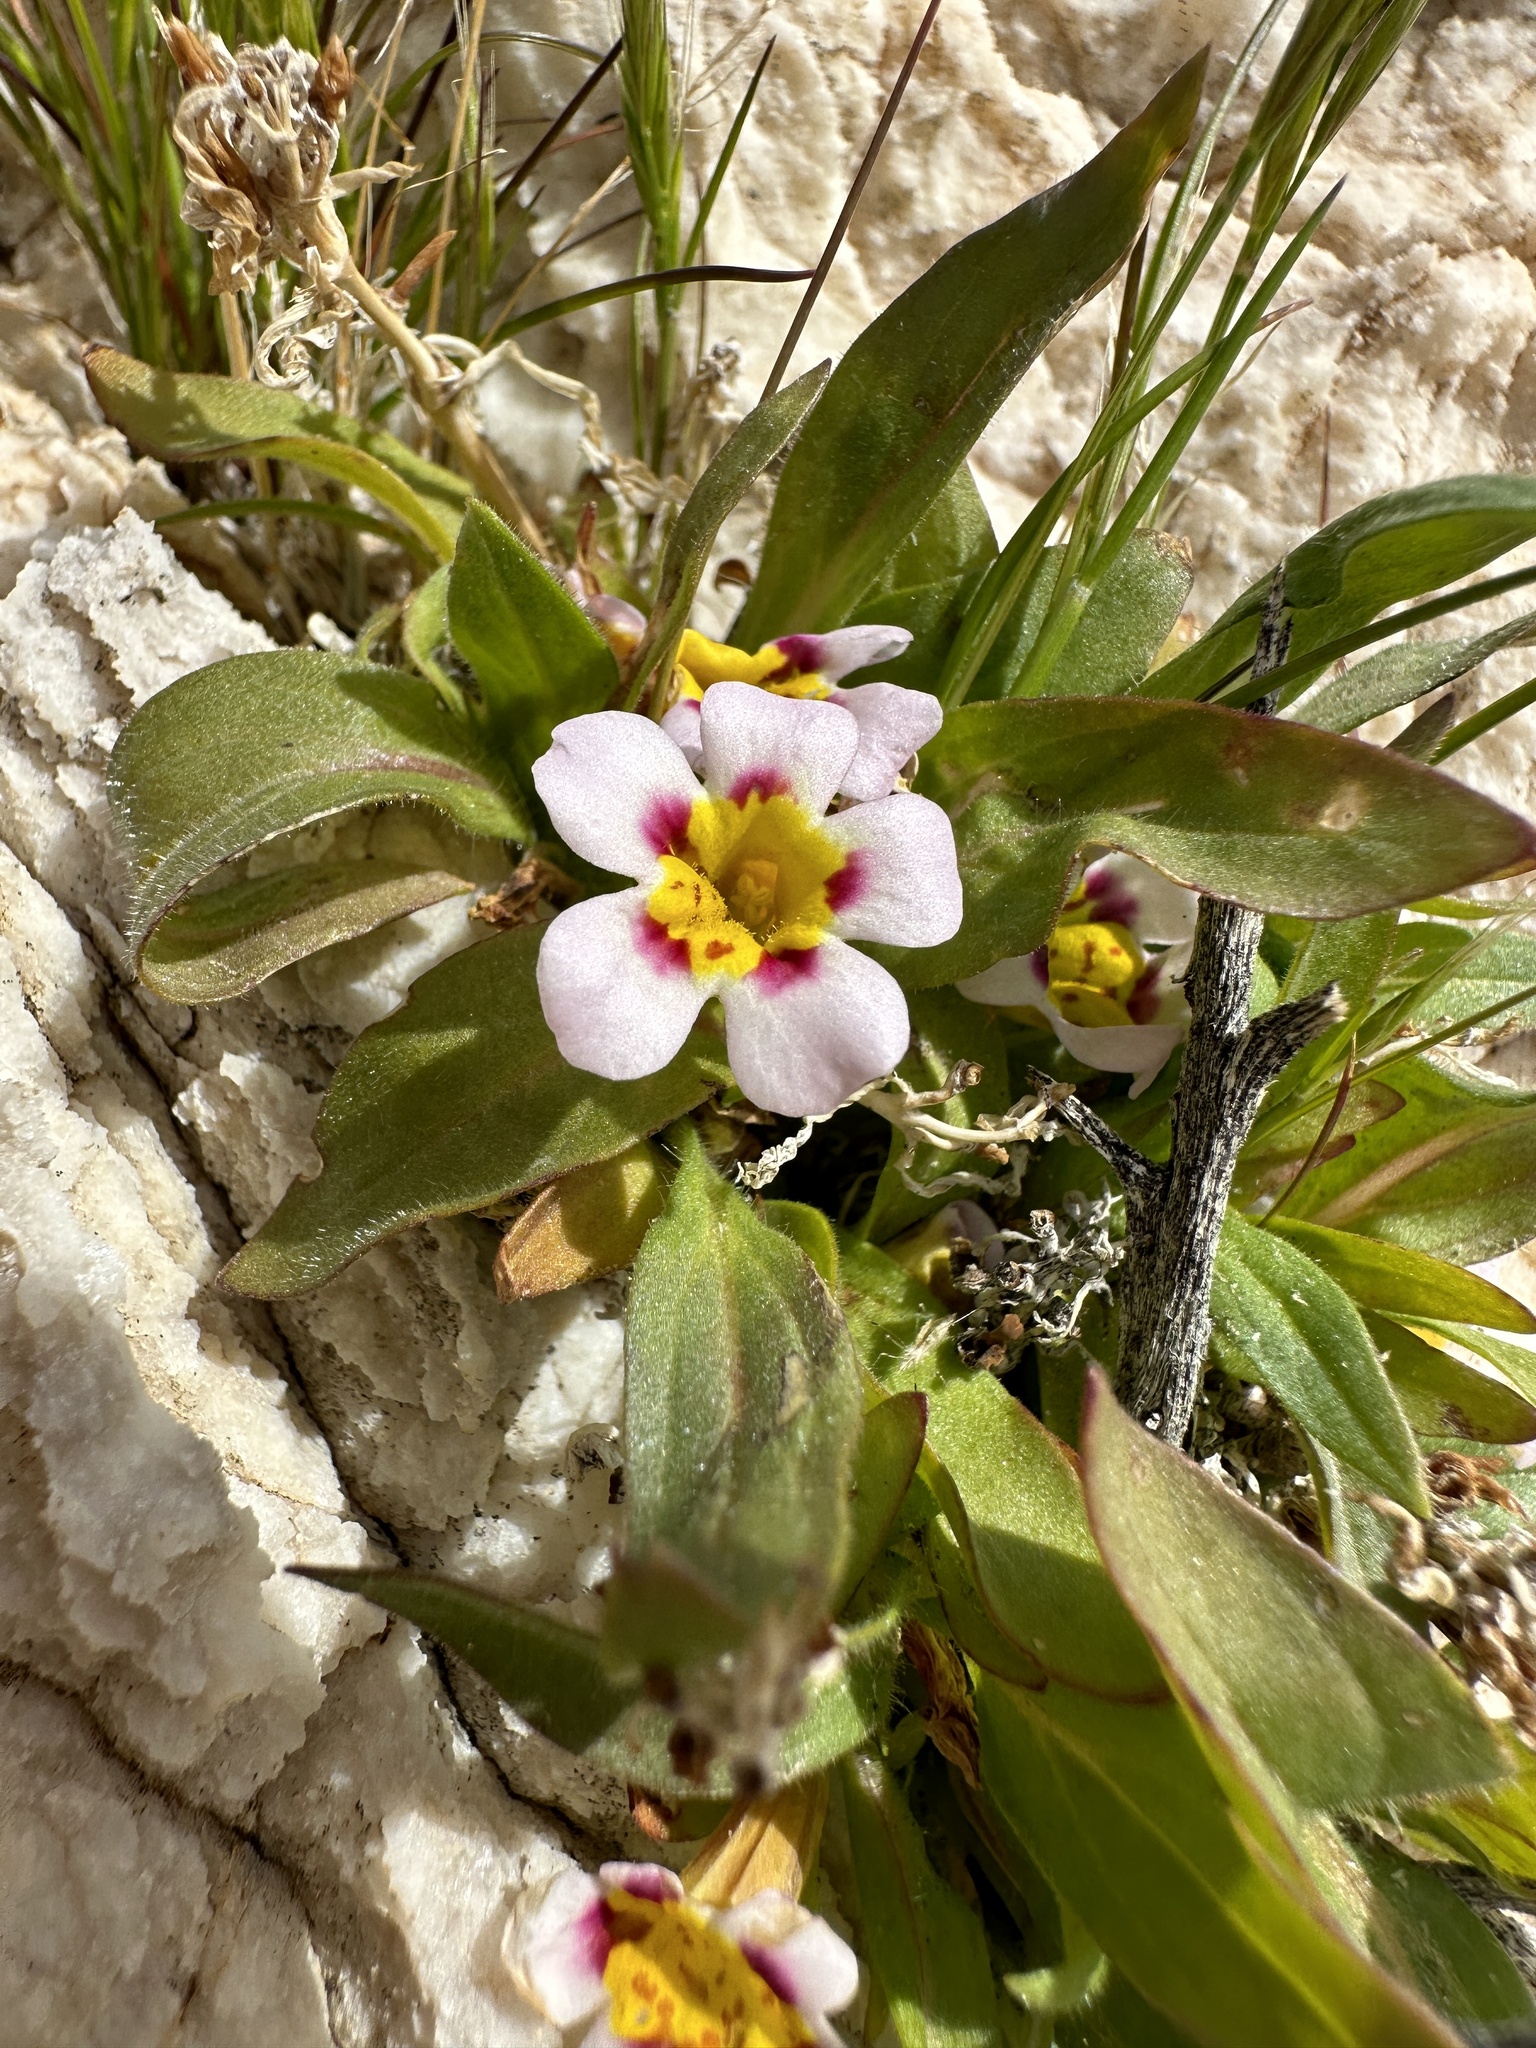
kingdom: Plantae
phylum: Tracheophyta
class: Magnoliopsida
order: Lamiales
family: Phrymaceae
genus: Diplacus
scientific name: Diplacus rupicola
